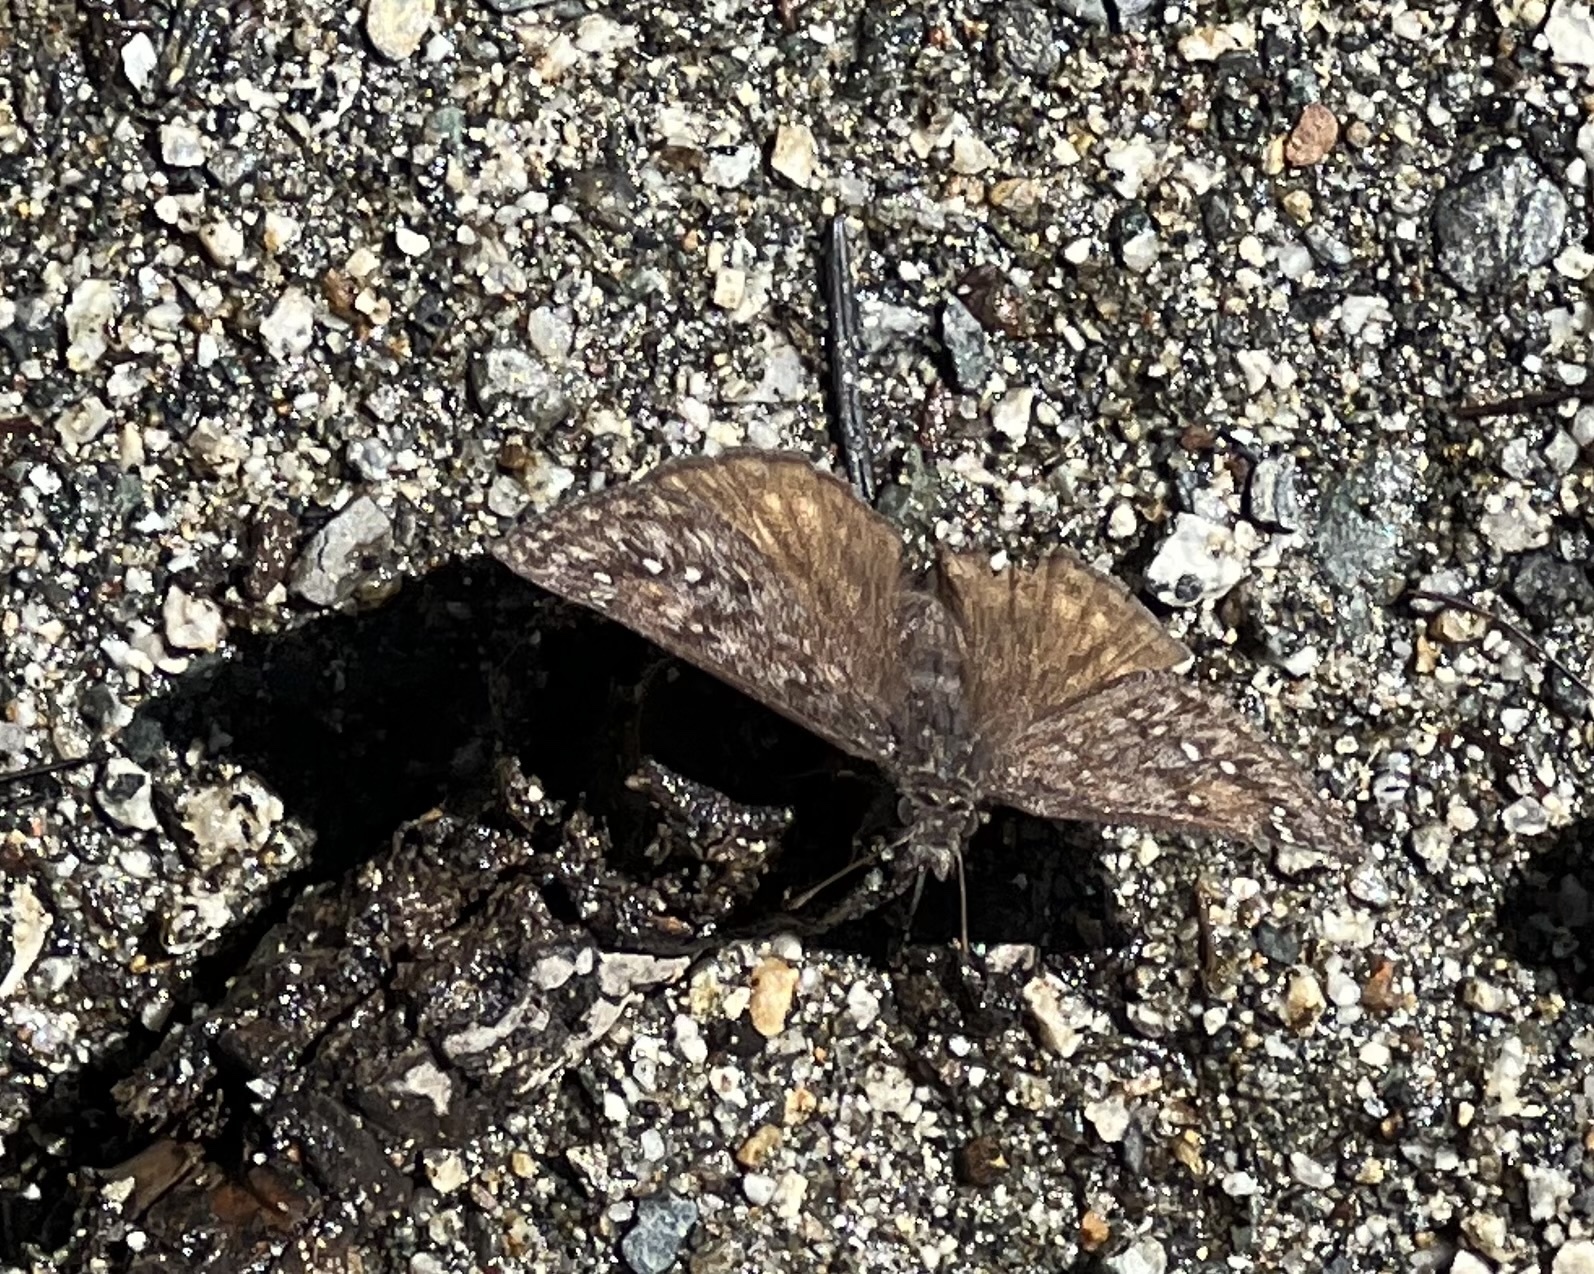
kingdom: Animalia
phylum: Arthropoda
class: Insecta
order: Lepidoptera
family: Hesperiidae
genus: Erynnis
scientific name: Erynnis propertius
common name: Propertius duskywing
